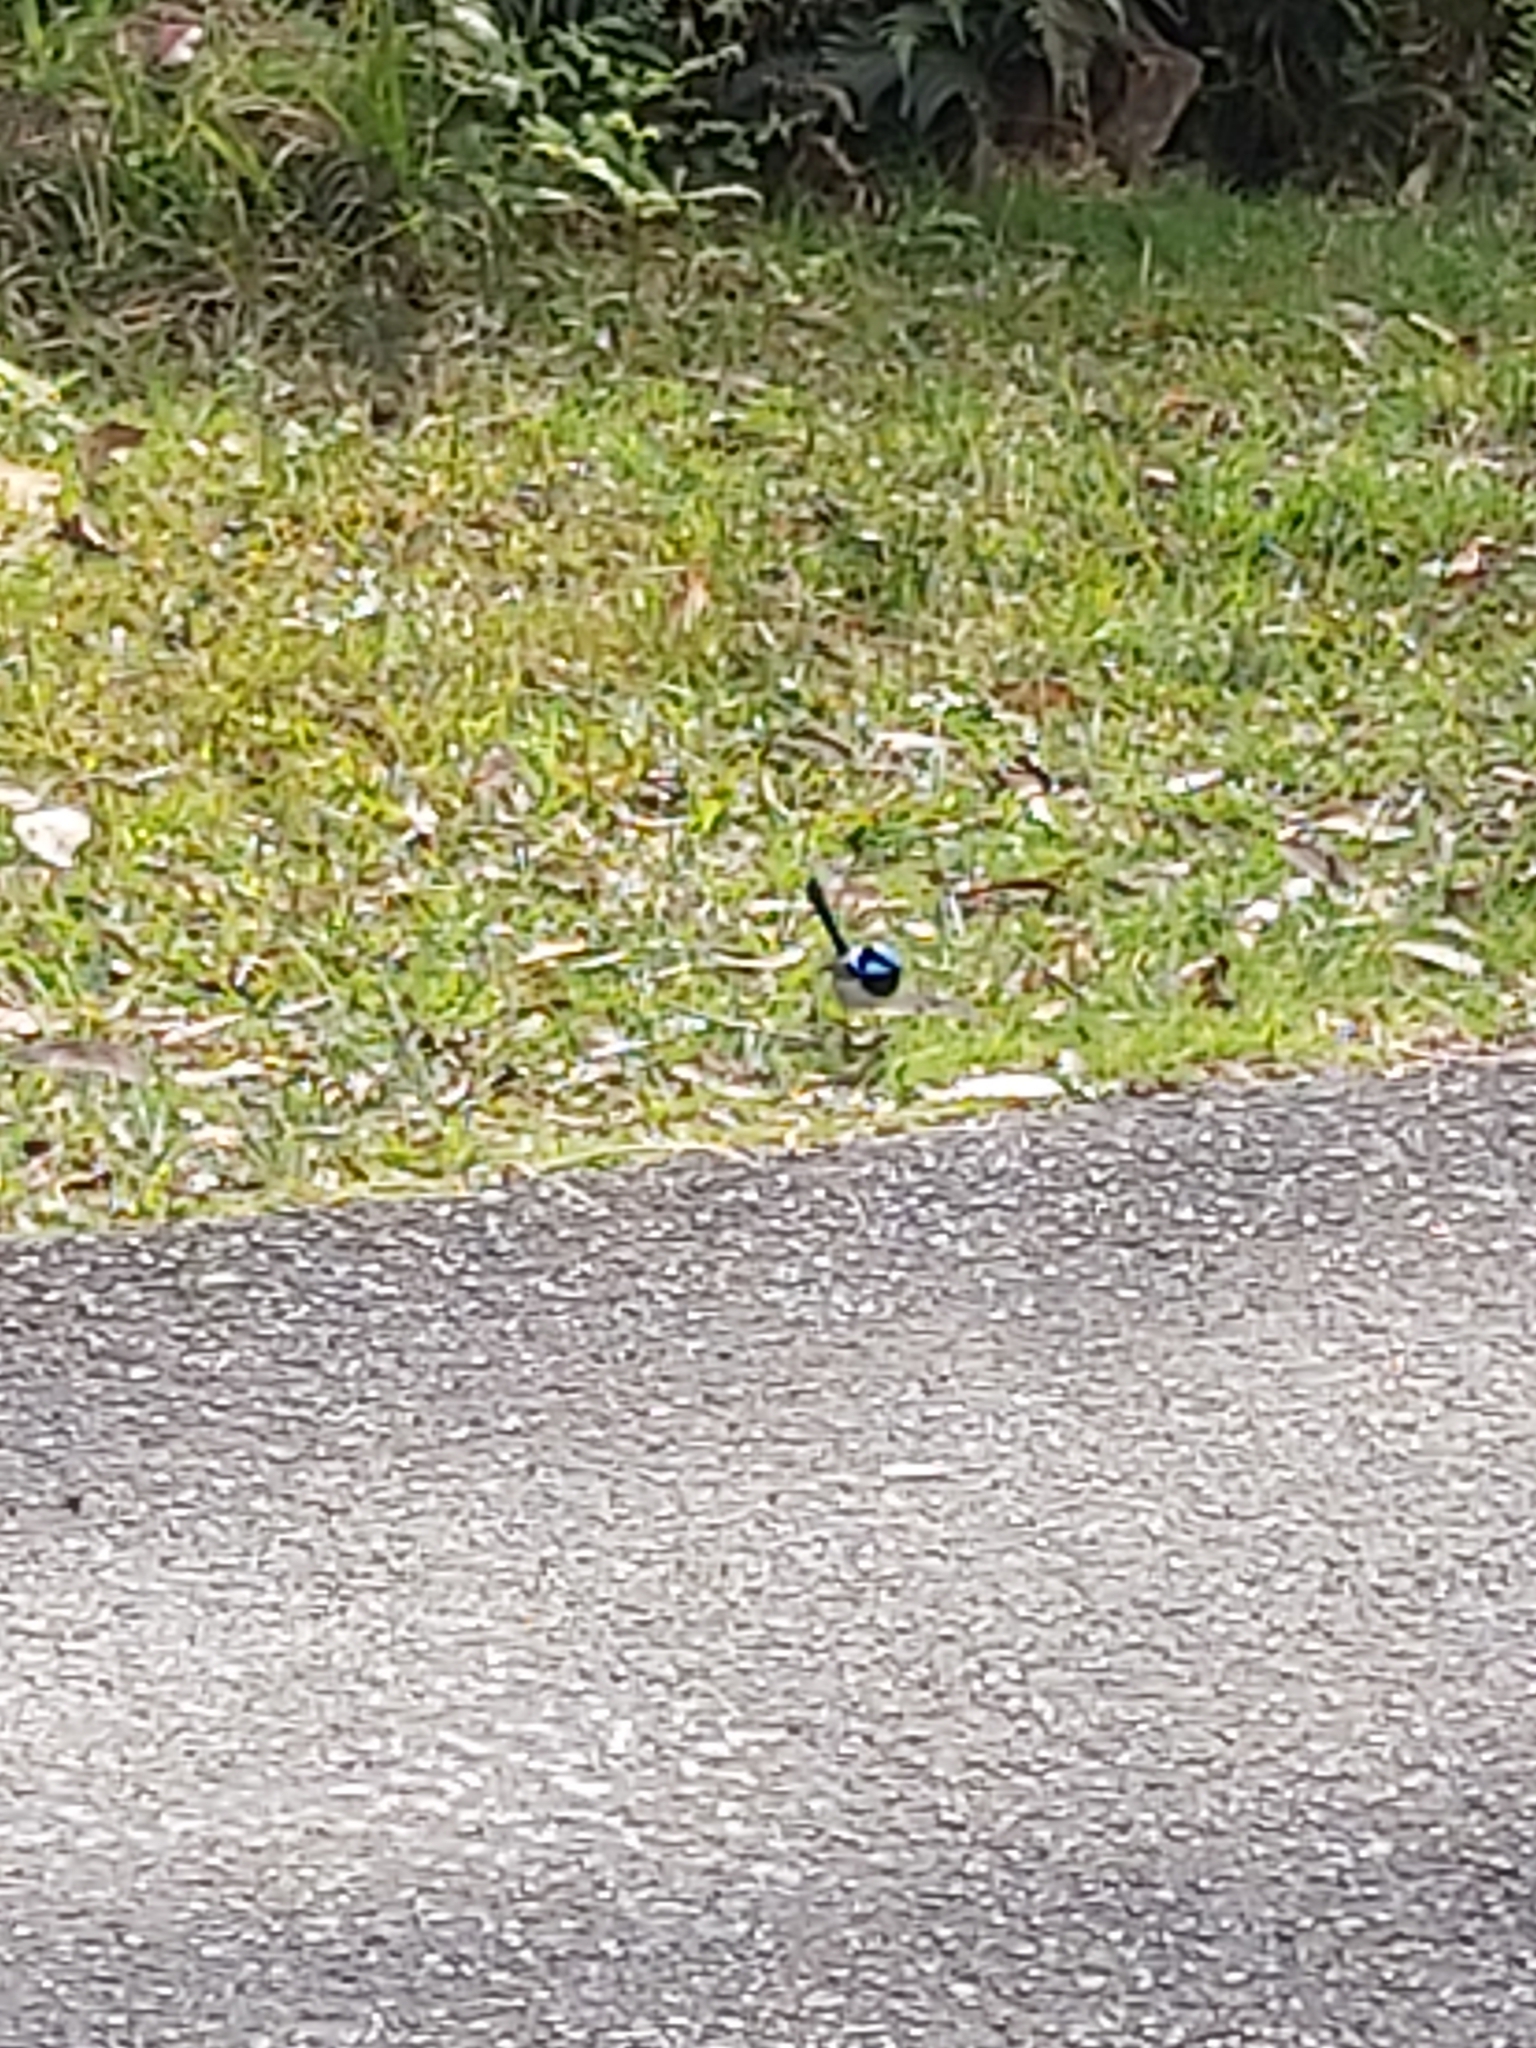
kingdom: Animalia
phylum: Chordata
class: Aves
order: Passeriformes
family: Maluridae
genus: Malurus
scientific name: Malurus cyaneus
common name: Superb fairywren
